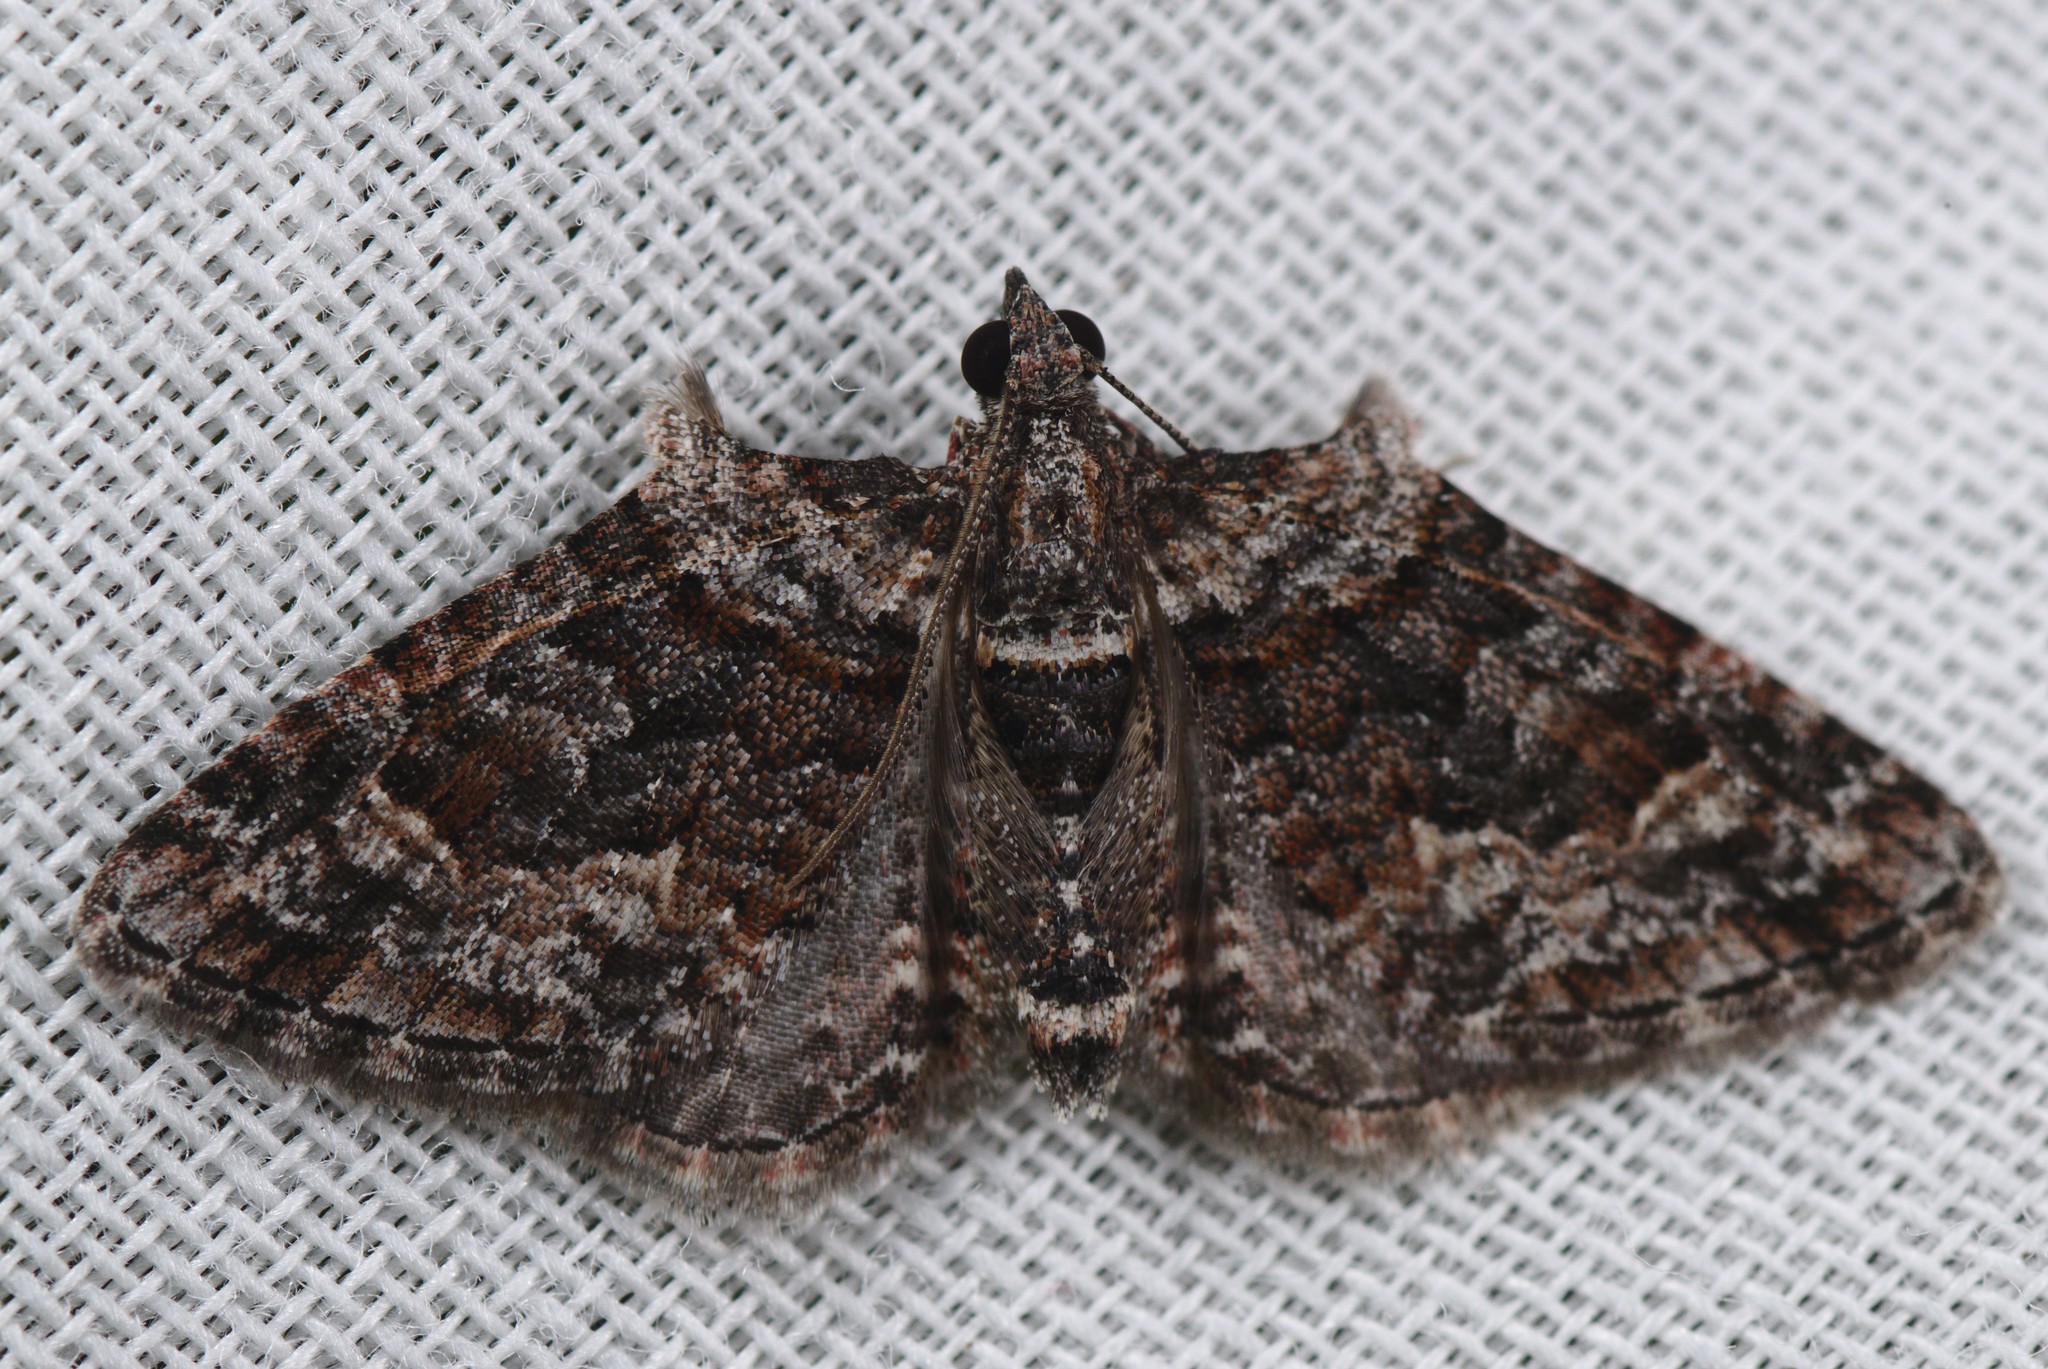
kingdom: Animalia
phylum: Arthropoda
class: Insecta
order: Lepidoptera
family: Geometridae
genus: Phrissogonus
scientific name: Phrissogonus laticostata
